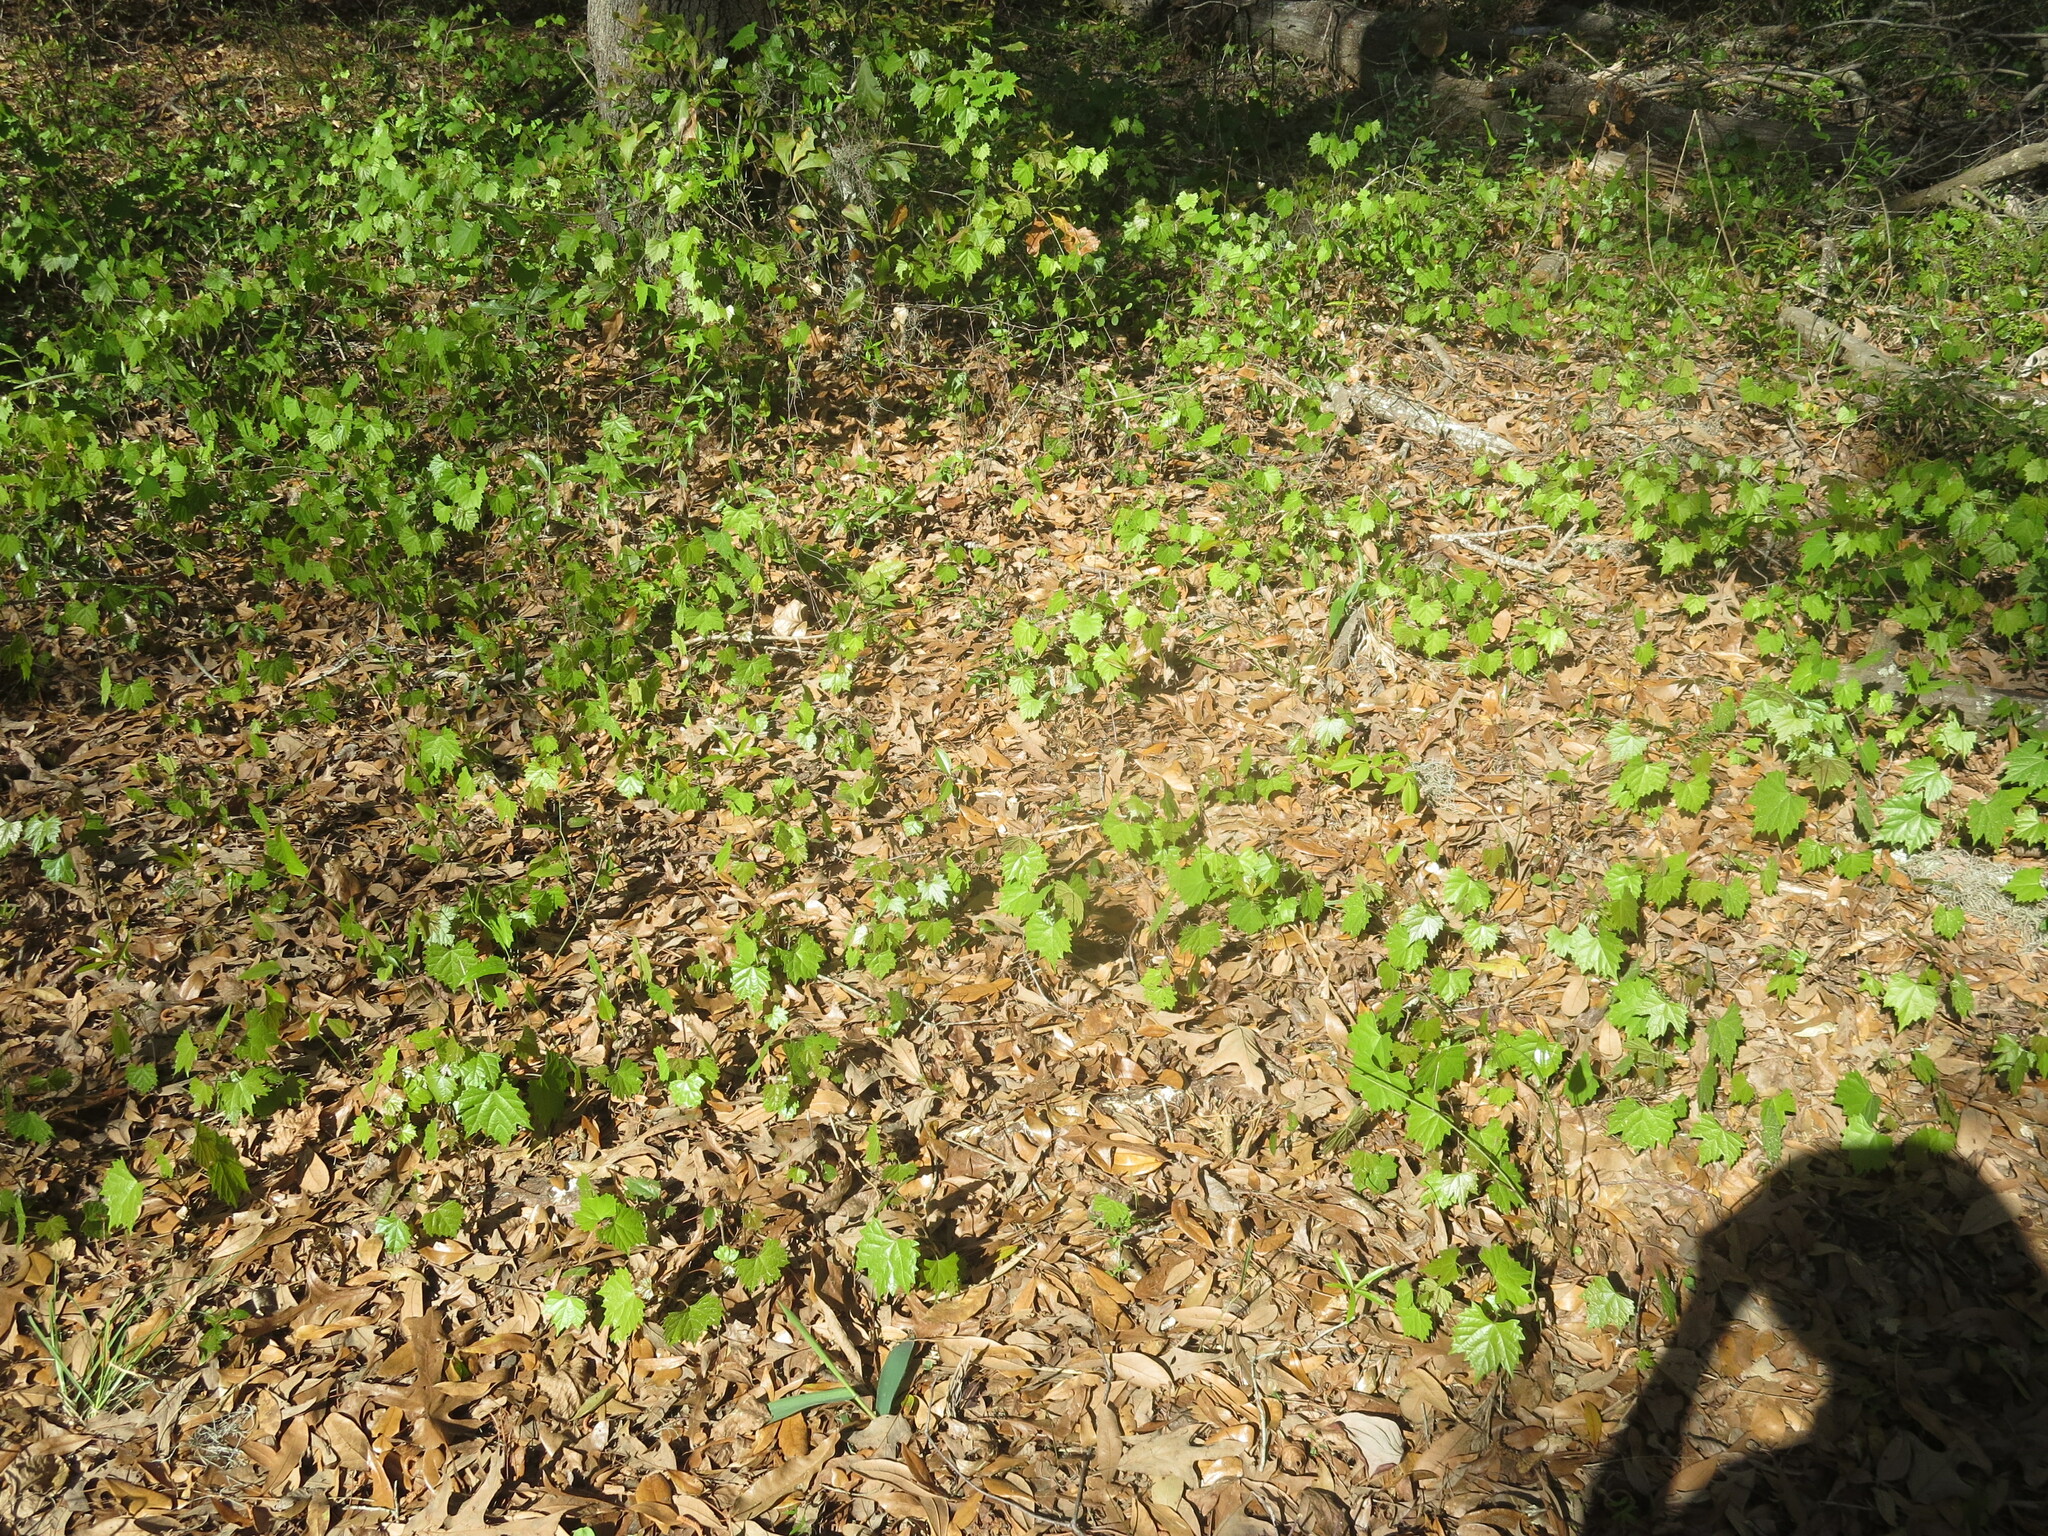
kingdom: Plantae
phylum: Tracheophyta
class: Magnoliopsida
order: Vitales
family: Vitaceae
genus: Vitis
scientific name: Vitis rotundifolia
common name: Muscadine grape
